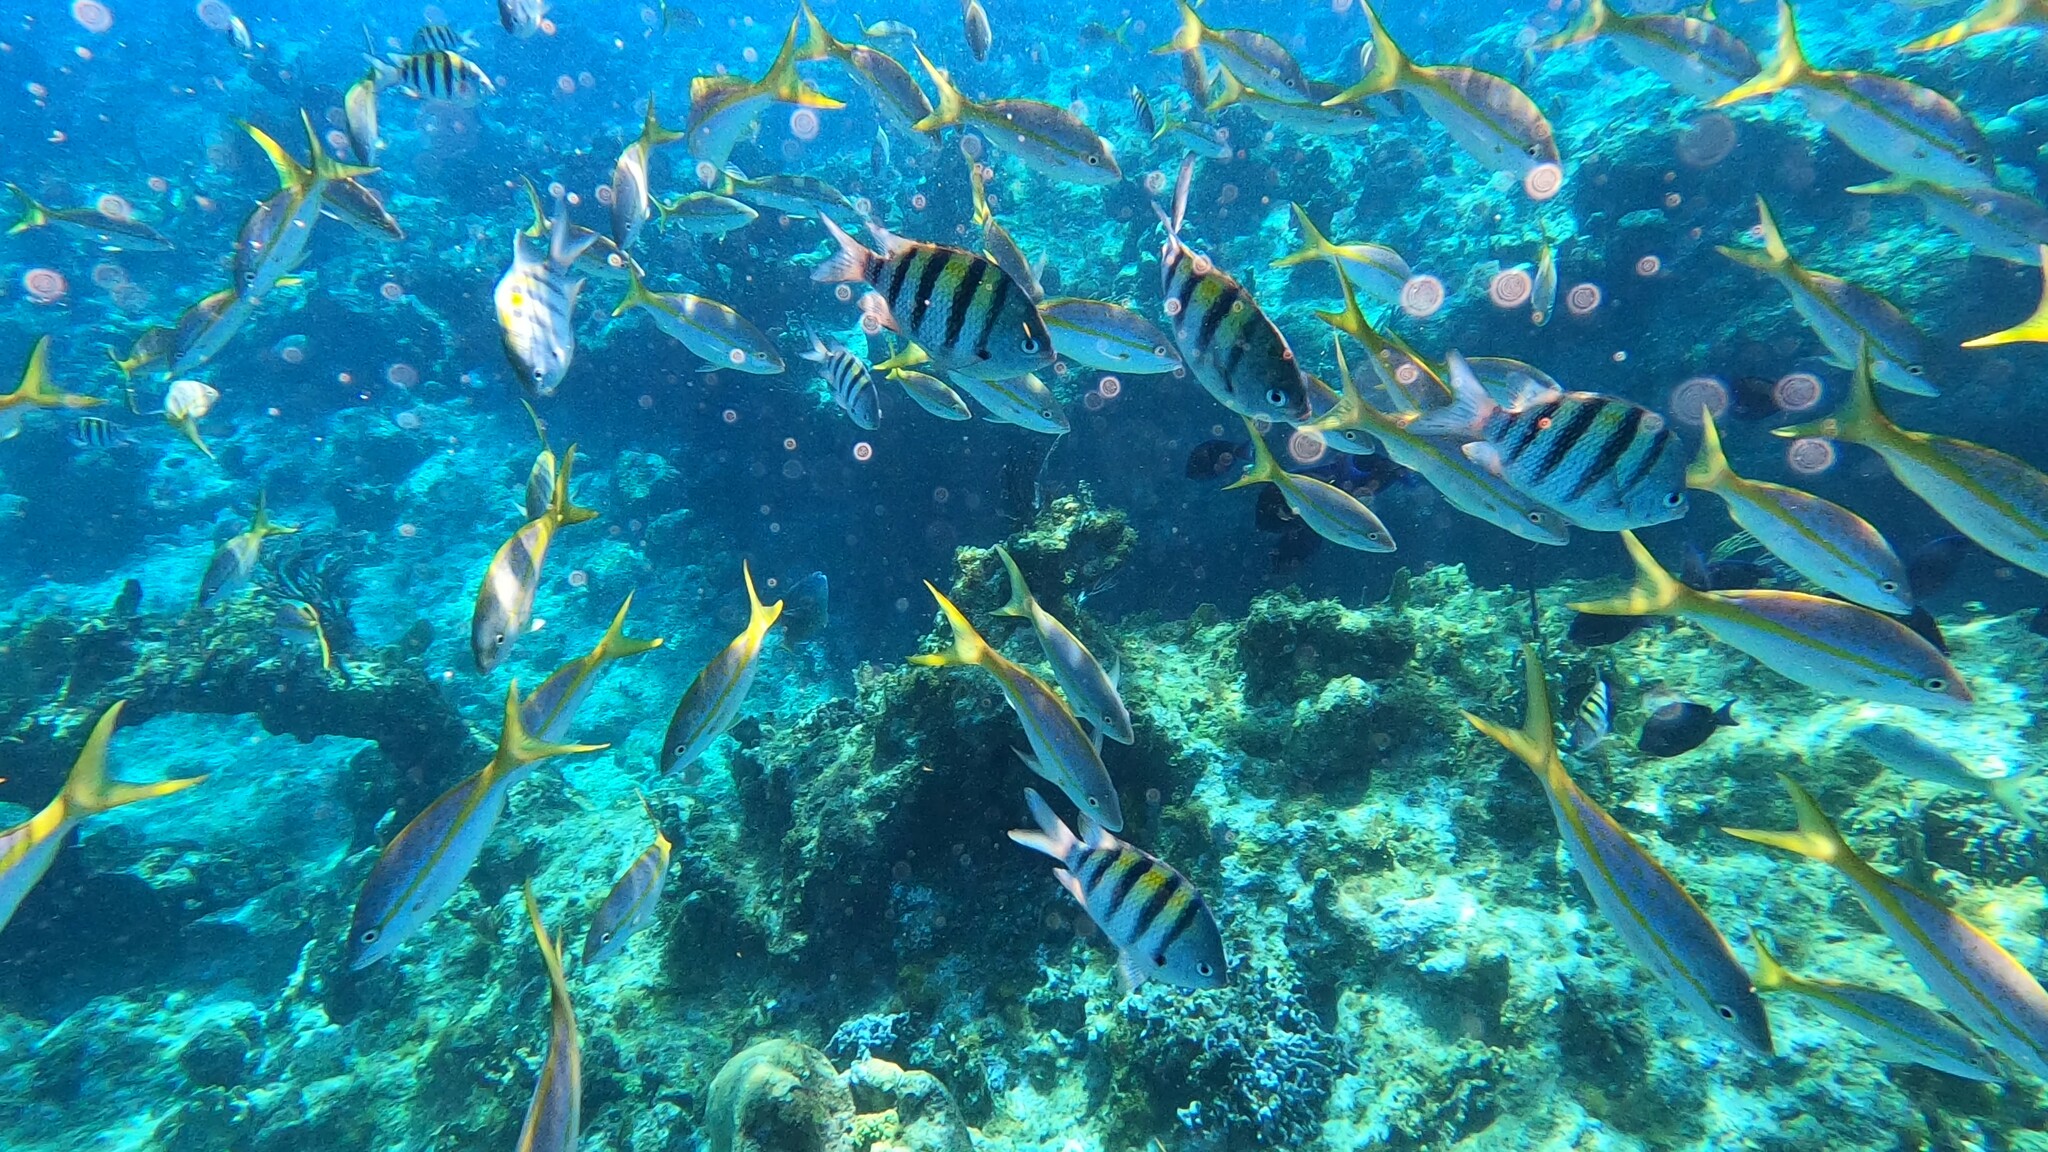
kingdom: Animalia
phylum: Chordata
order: Perciformes
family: Lutjanidae
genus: Ocyurus
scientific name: Ocyurus chrysurus
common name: Yellowtail snapper
